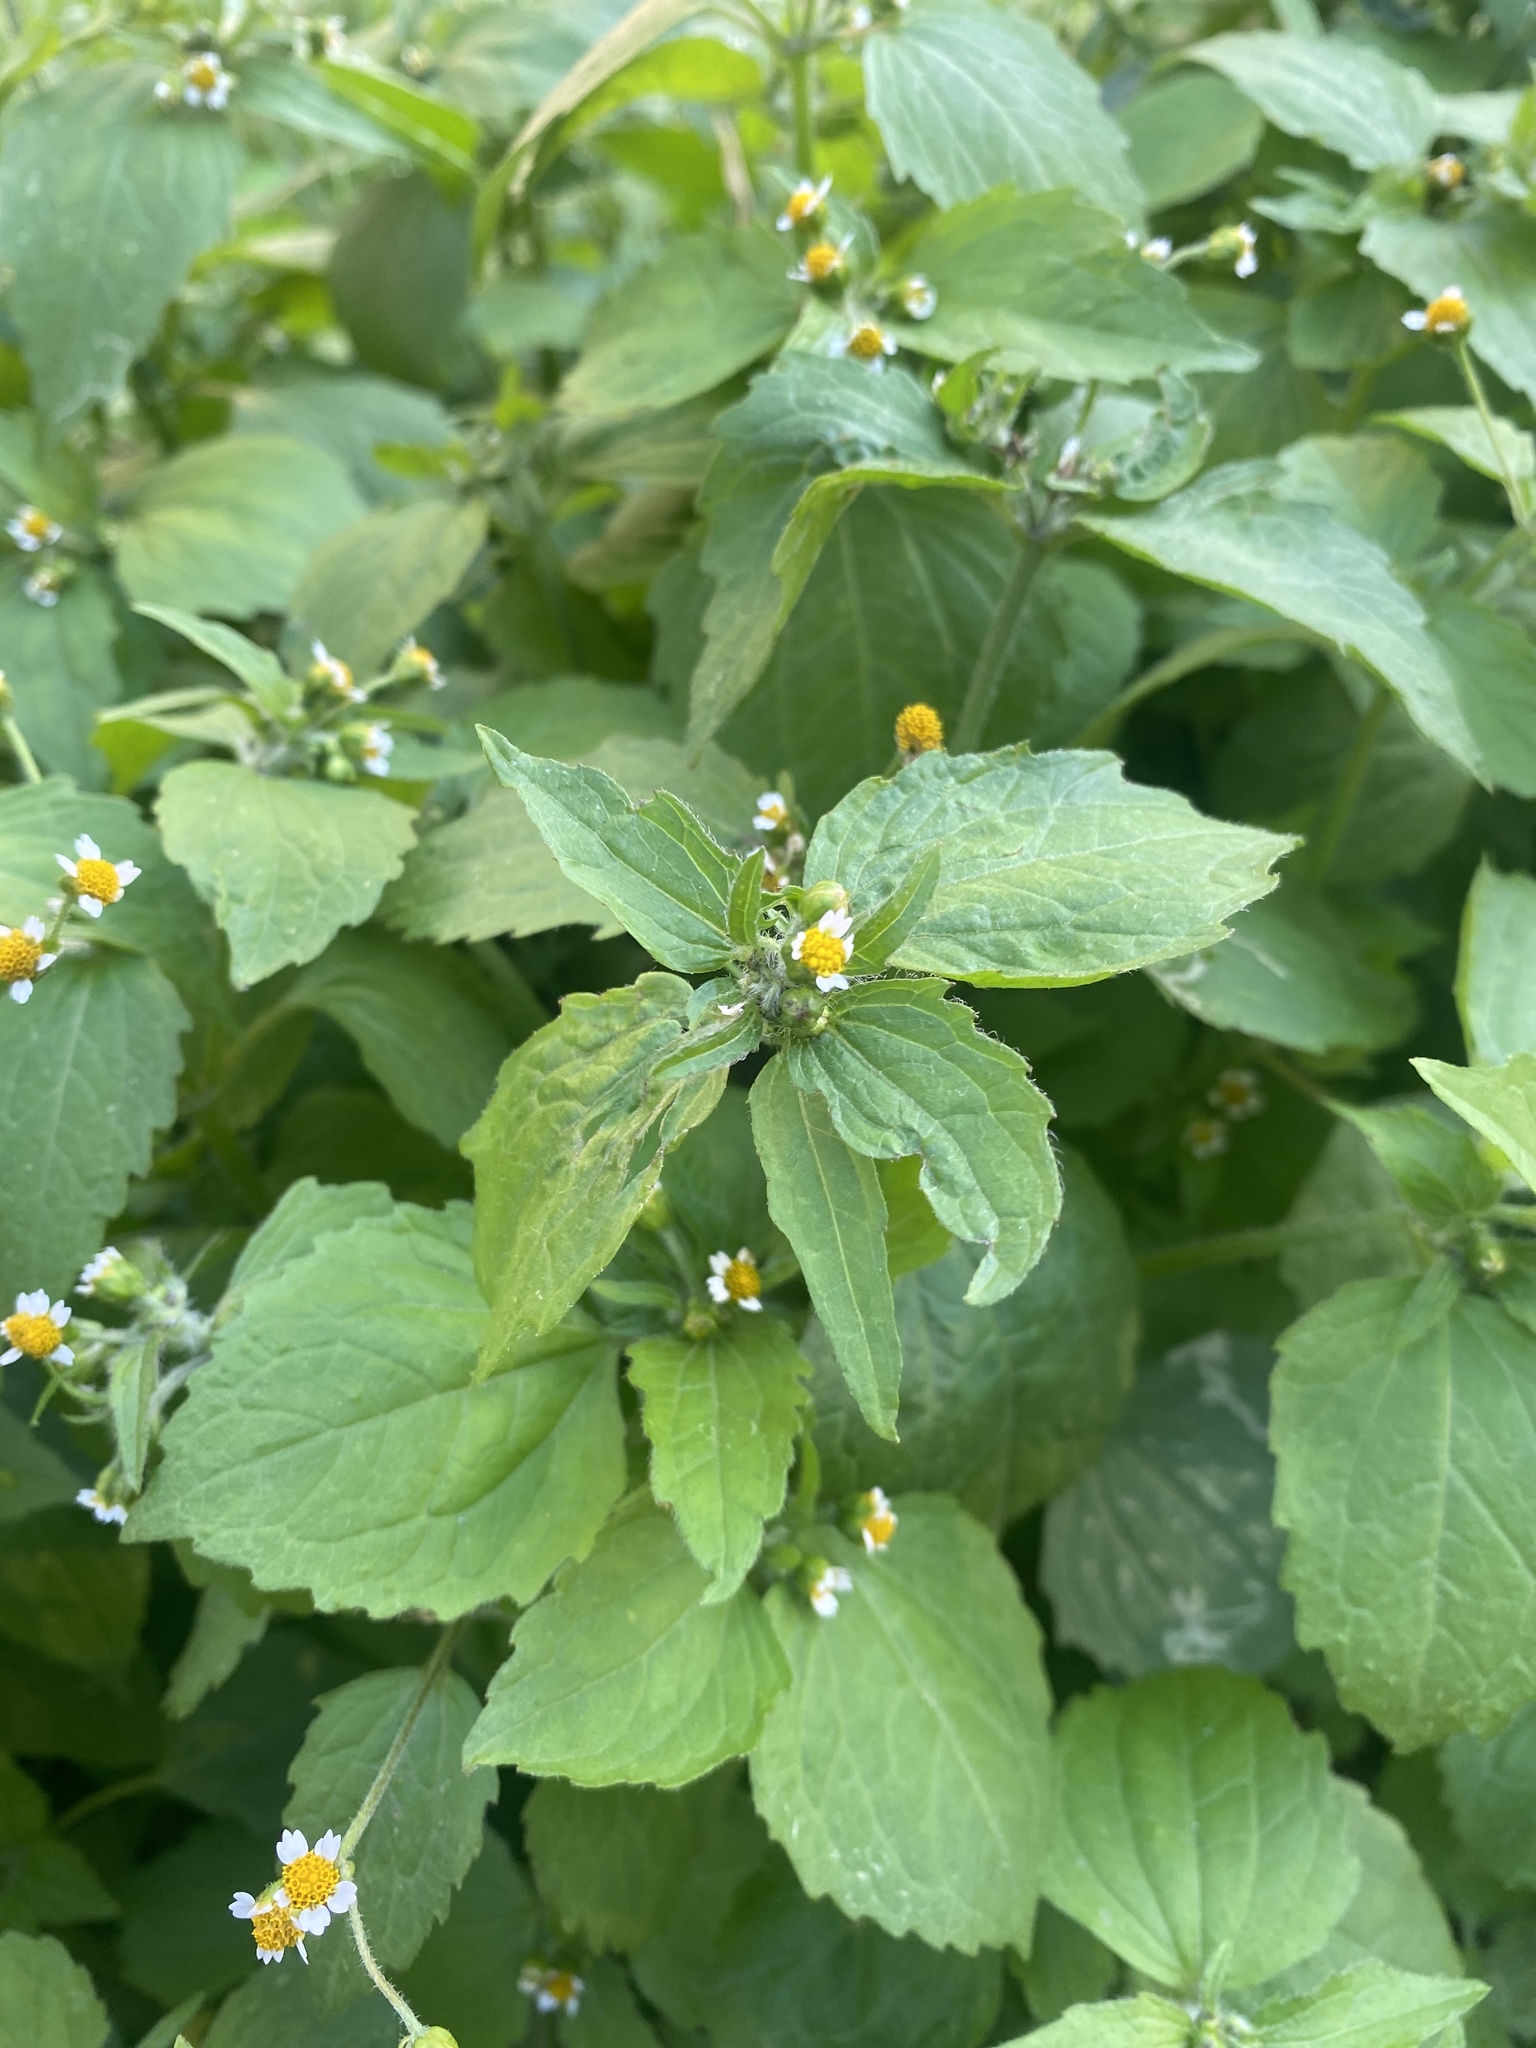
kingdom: Plantae
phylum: Tracheophyta
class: Magnoliopsida
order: Asterales
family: Asteraceae
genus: Galinsoga
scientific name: Galinsoga quadriradiata
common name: Shaggy soldier
